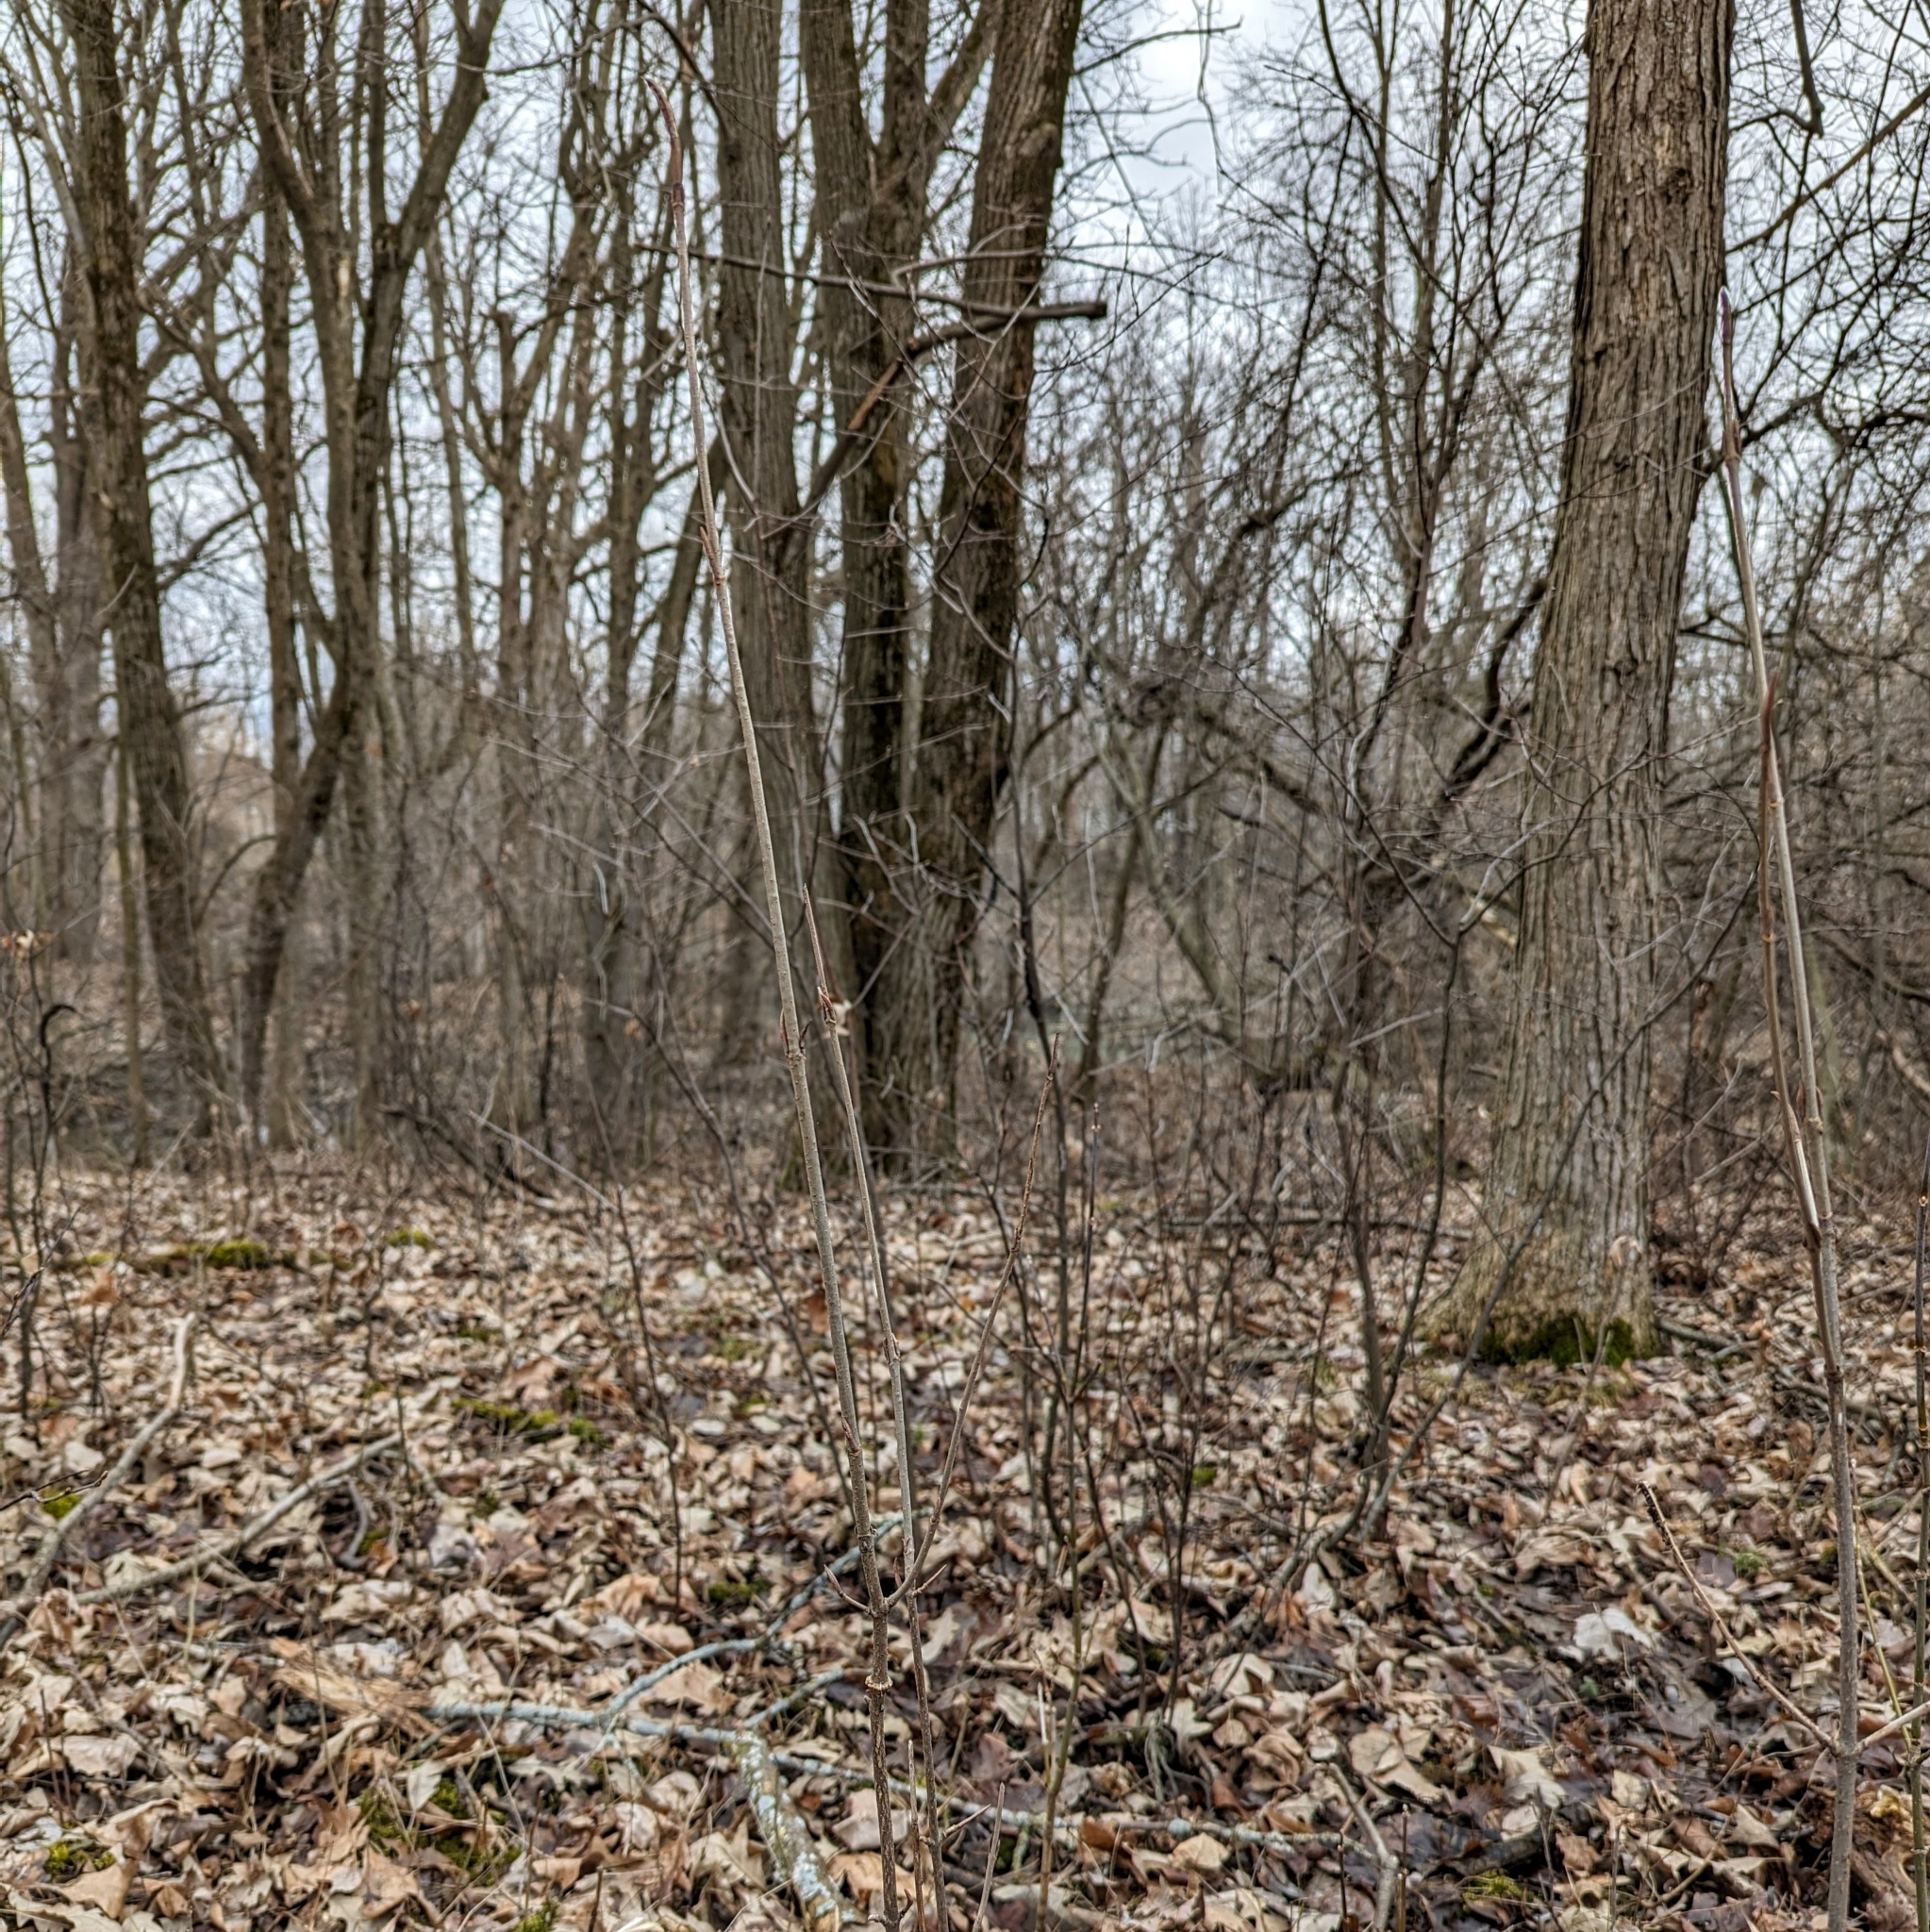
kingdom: Plantae
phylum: Tracheophyta
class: Magnoliopsida
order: Dipsacales
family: Viburnaceae
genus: Viburnum
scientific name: Viburnum cassinoides
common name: Swamp haw
